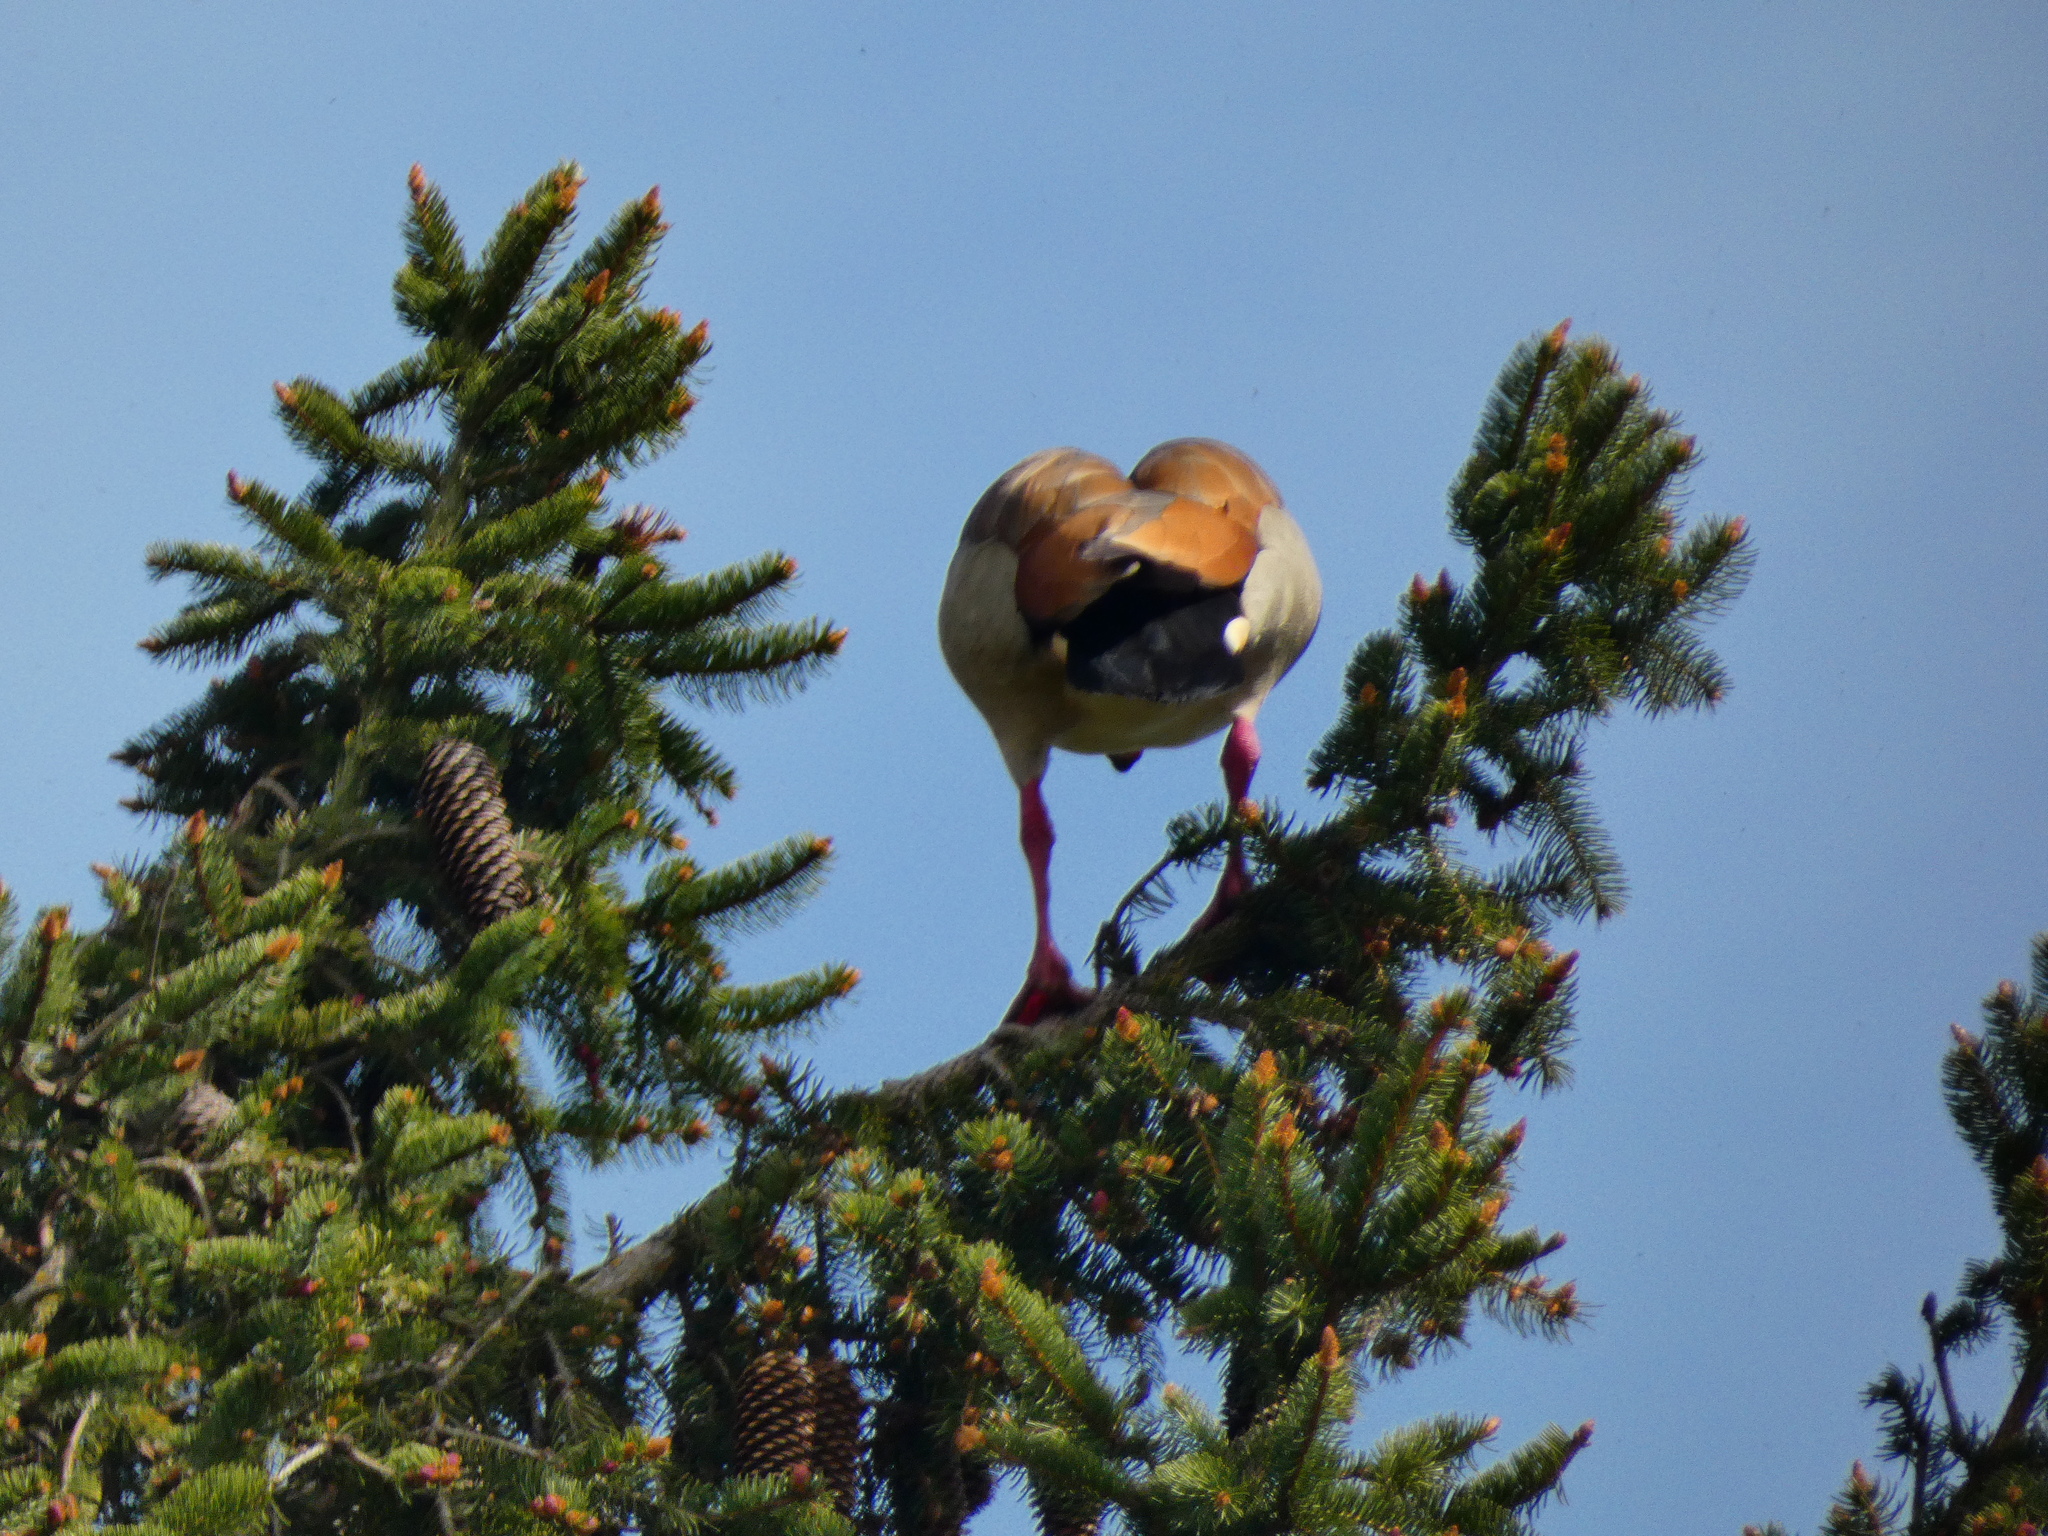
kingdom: Animalia
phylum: Chordata
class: Aves
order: Anseriformes
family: Anatidae
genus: Alopochen
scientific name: Alopochen aegyptiaca
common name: Egyptian goose
